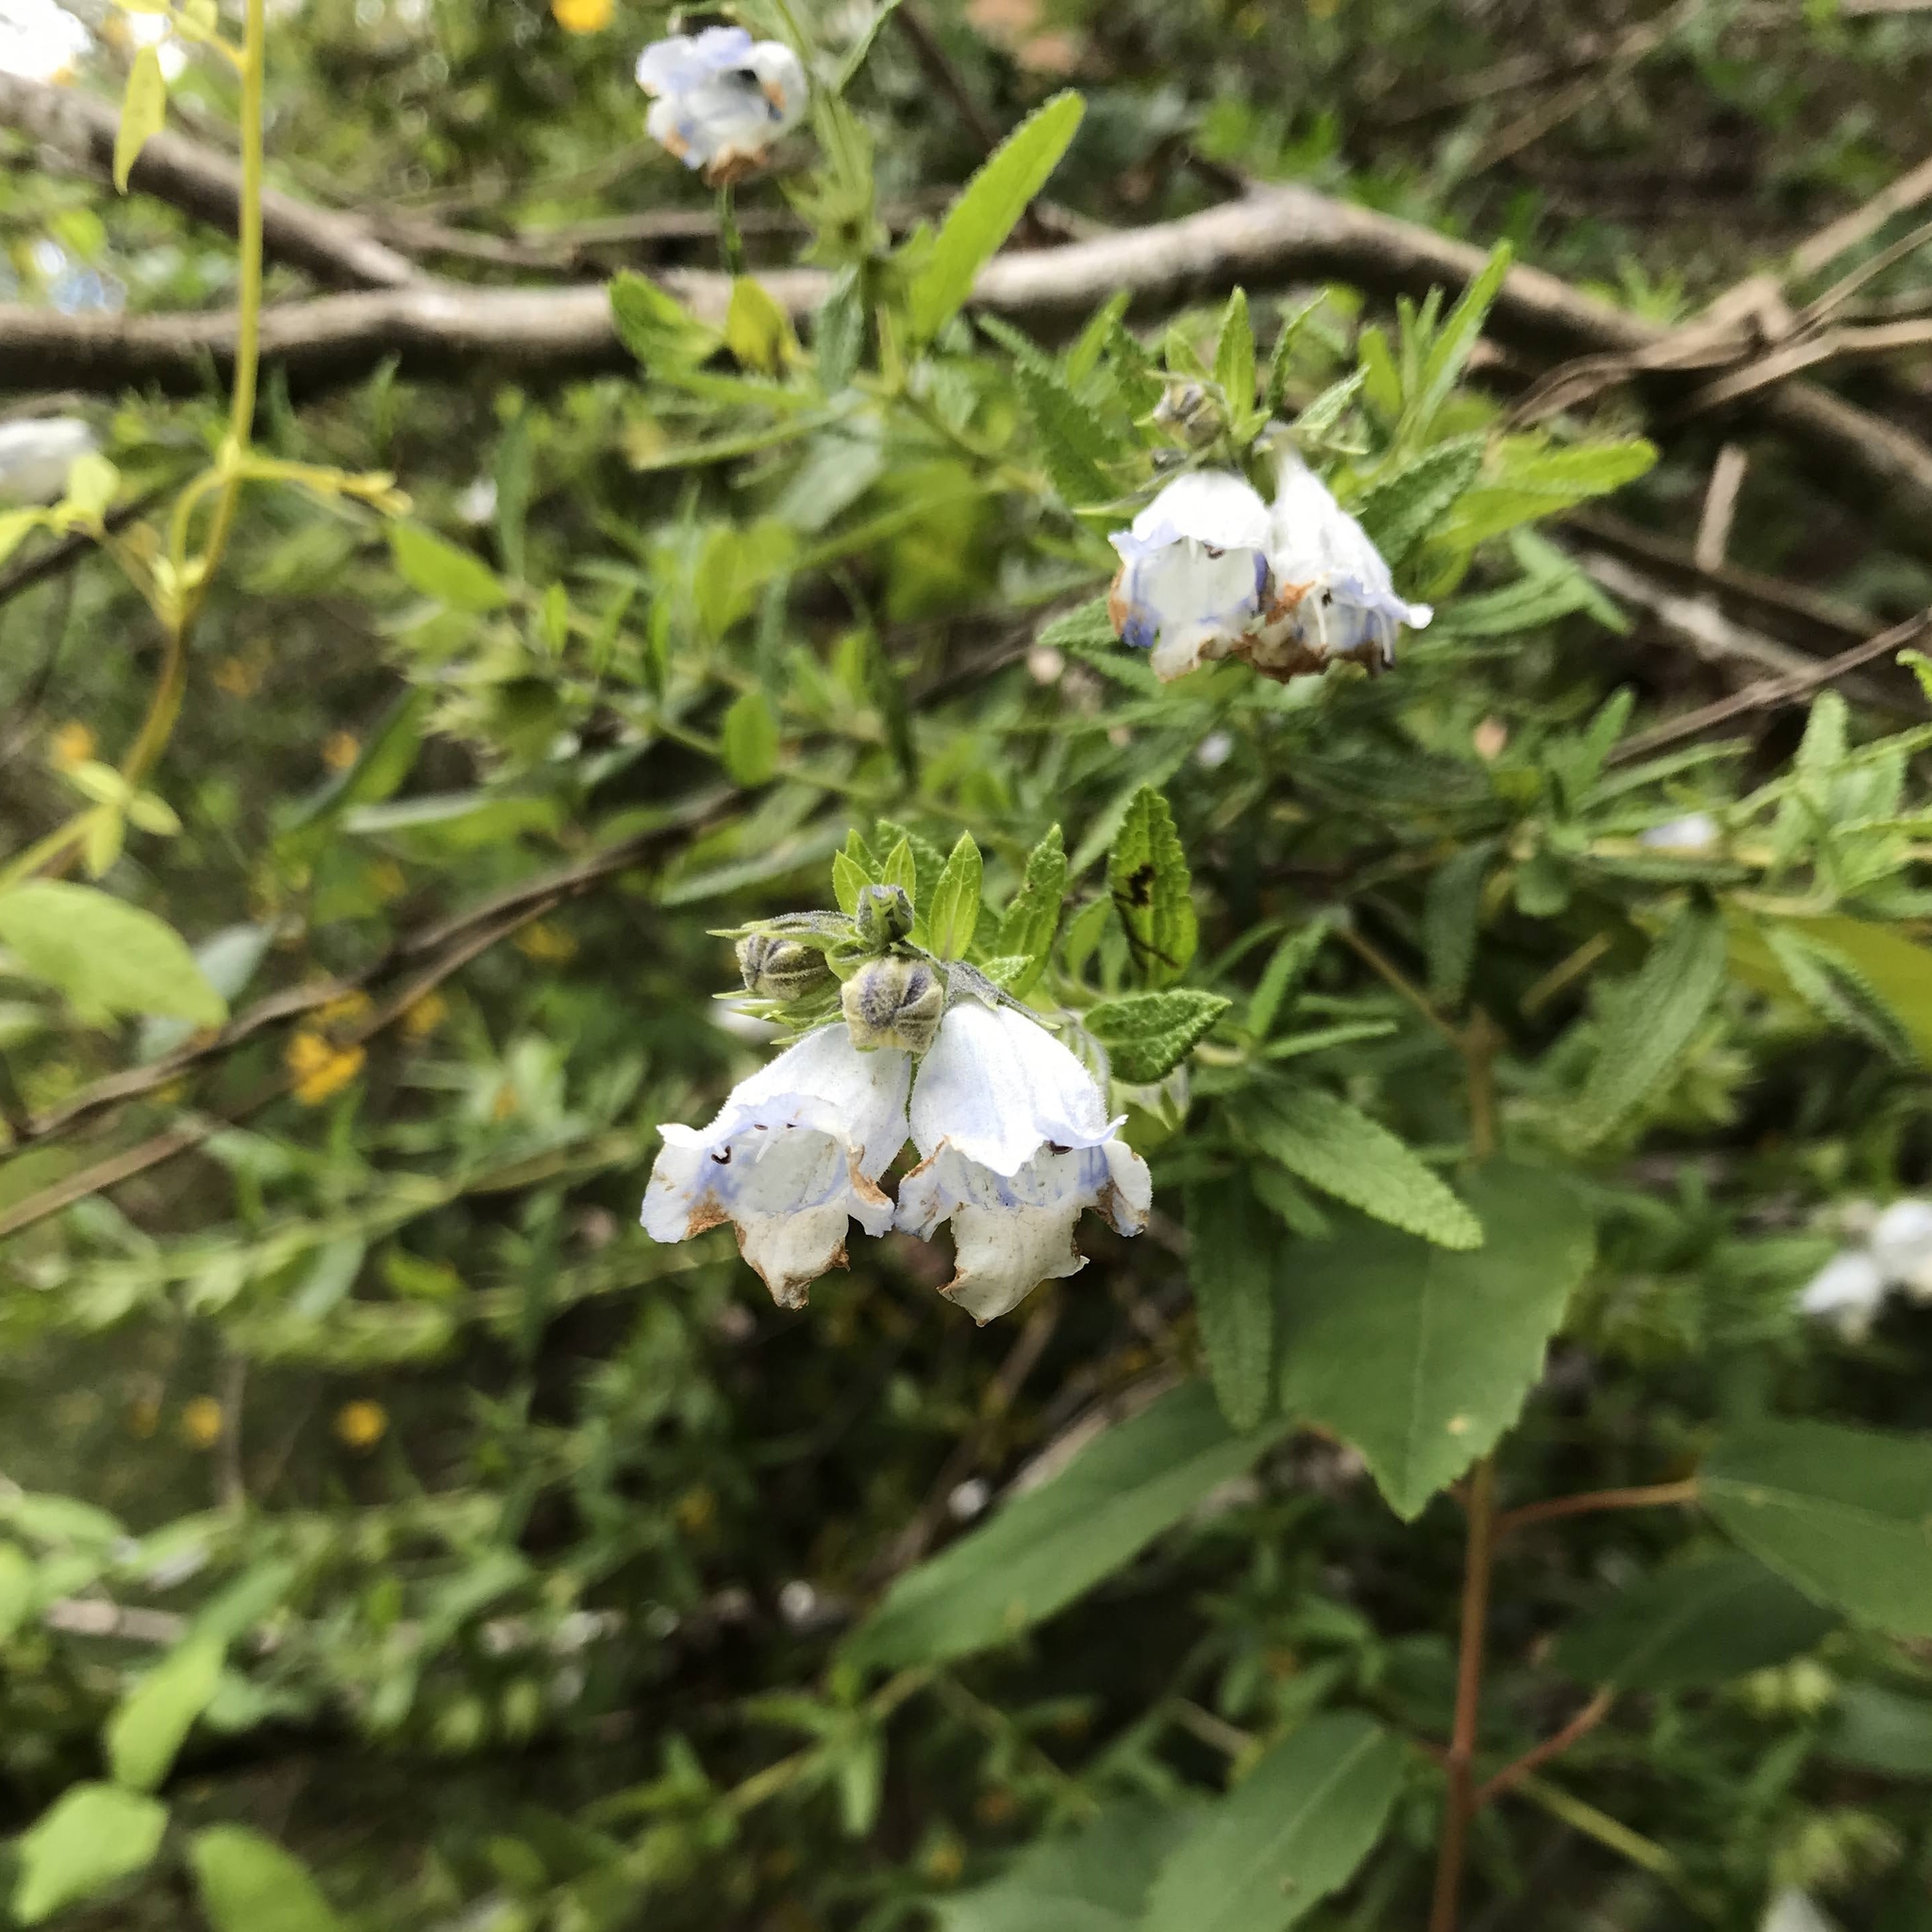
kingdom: Plantae
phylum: Tracheophyta
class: Magnoliopsida
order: Lamiales
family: Lamiaceae
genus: Lepechinia
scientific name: Lepechinia chilensis
